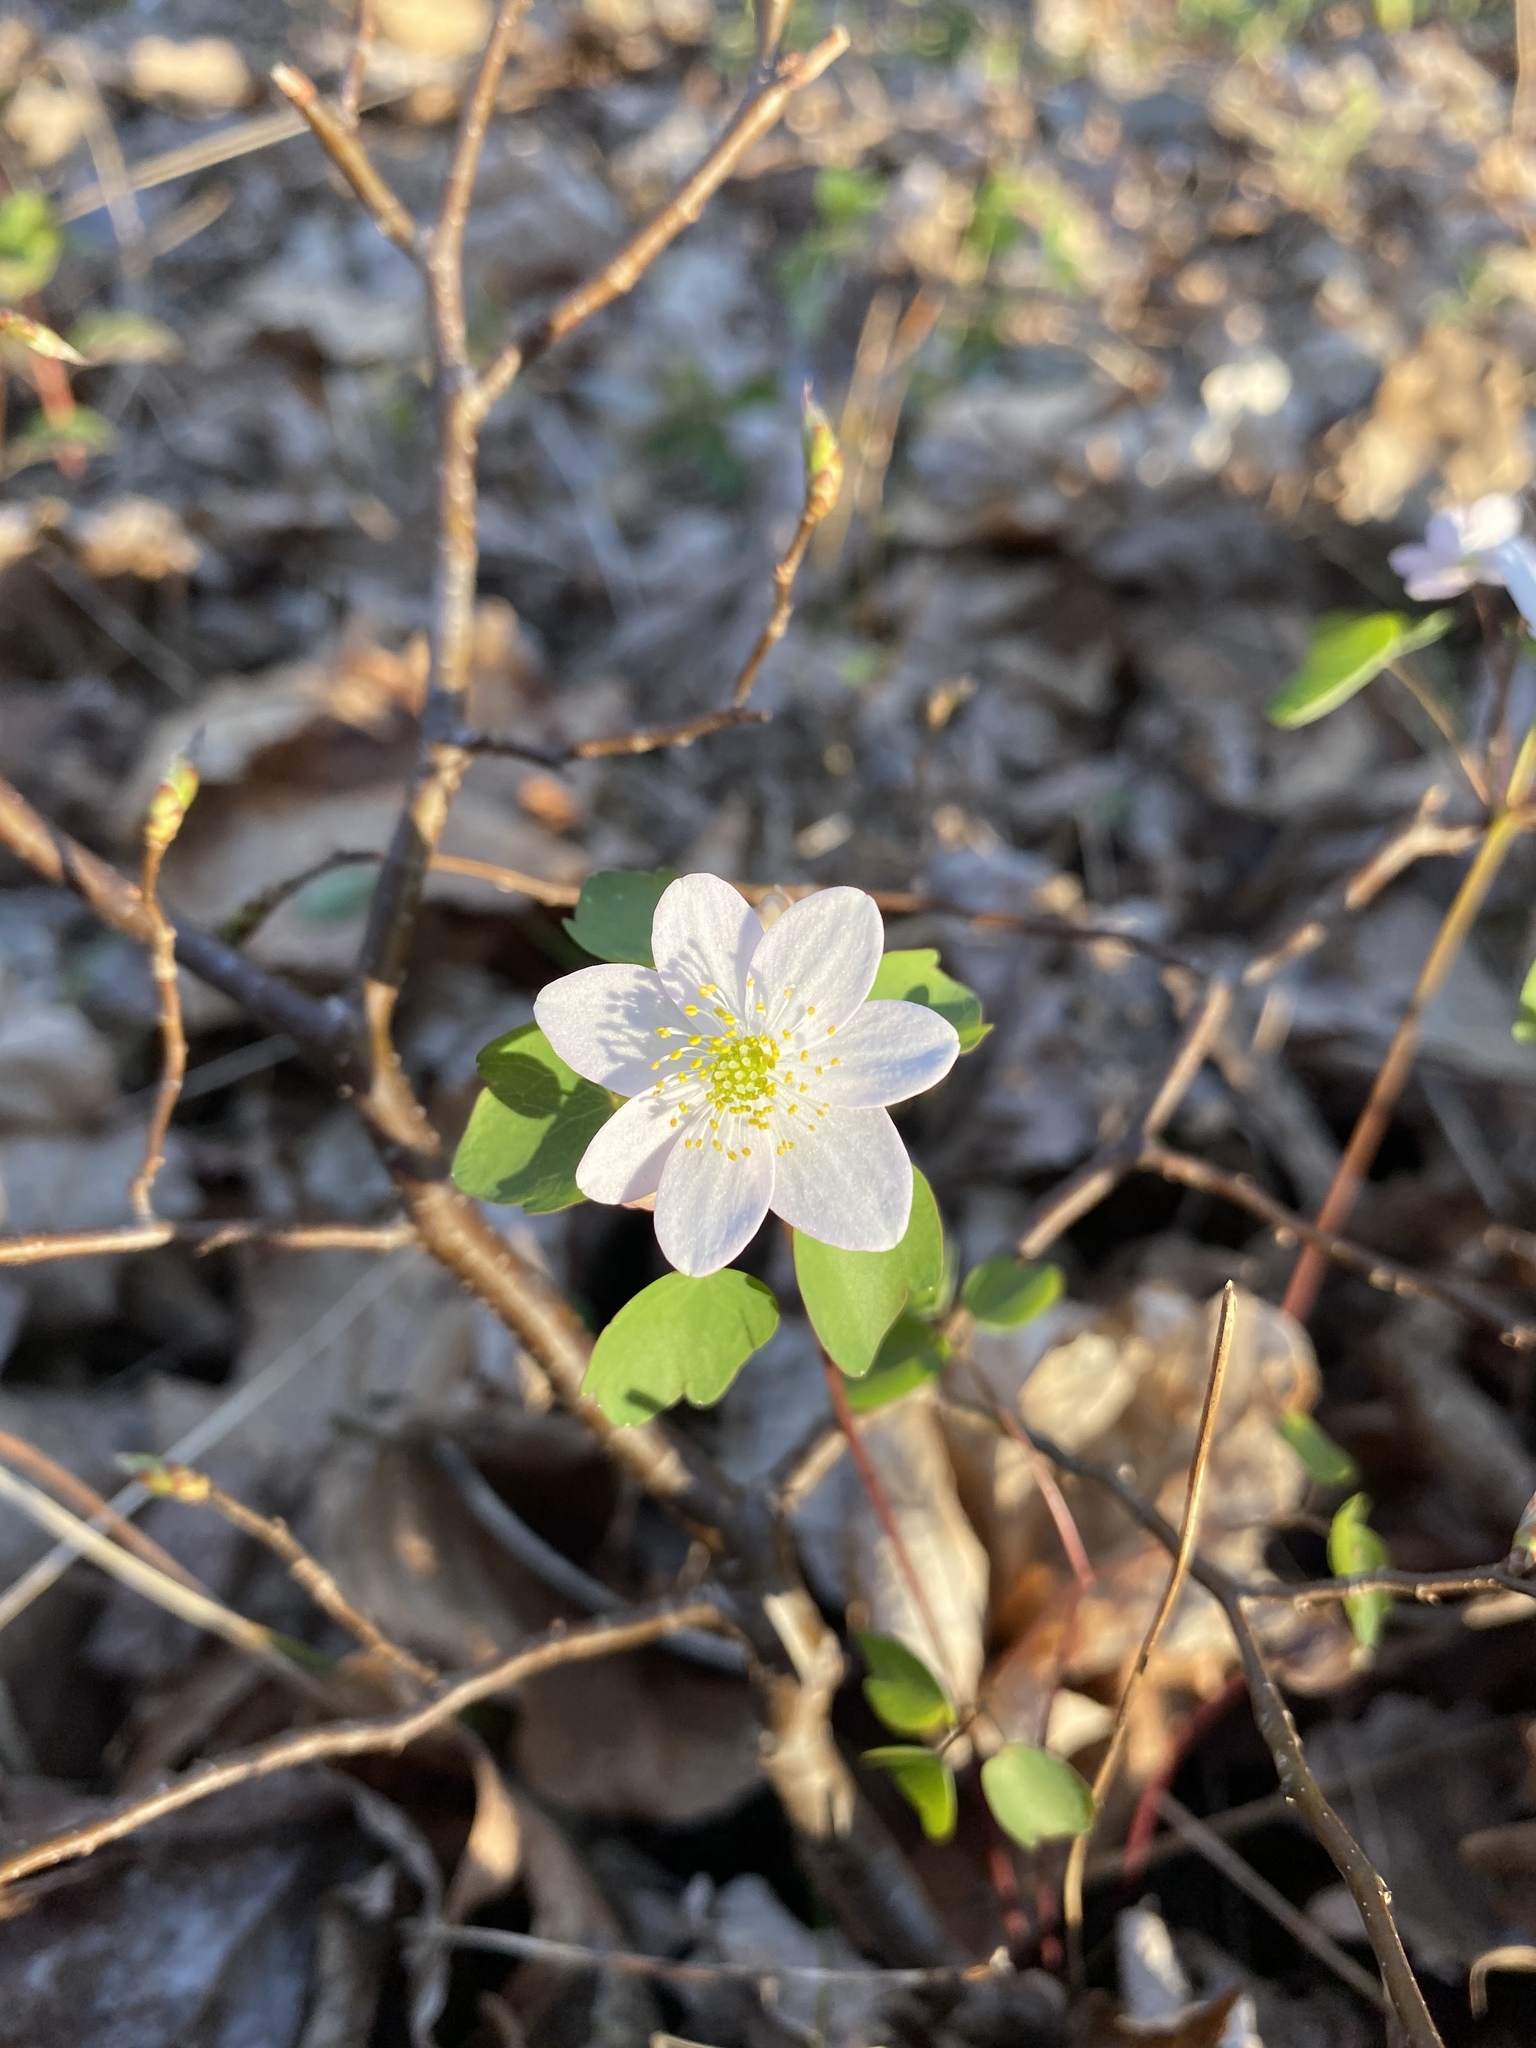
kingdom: Plantae
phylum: Tracheophyta
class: Magnoliopsida
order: Ranunculales
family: Ranunculaceae
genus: Thalictrum
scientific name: Thalictrum thalictroides
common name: Rue-anemone
